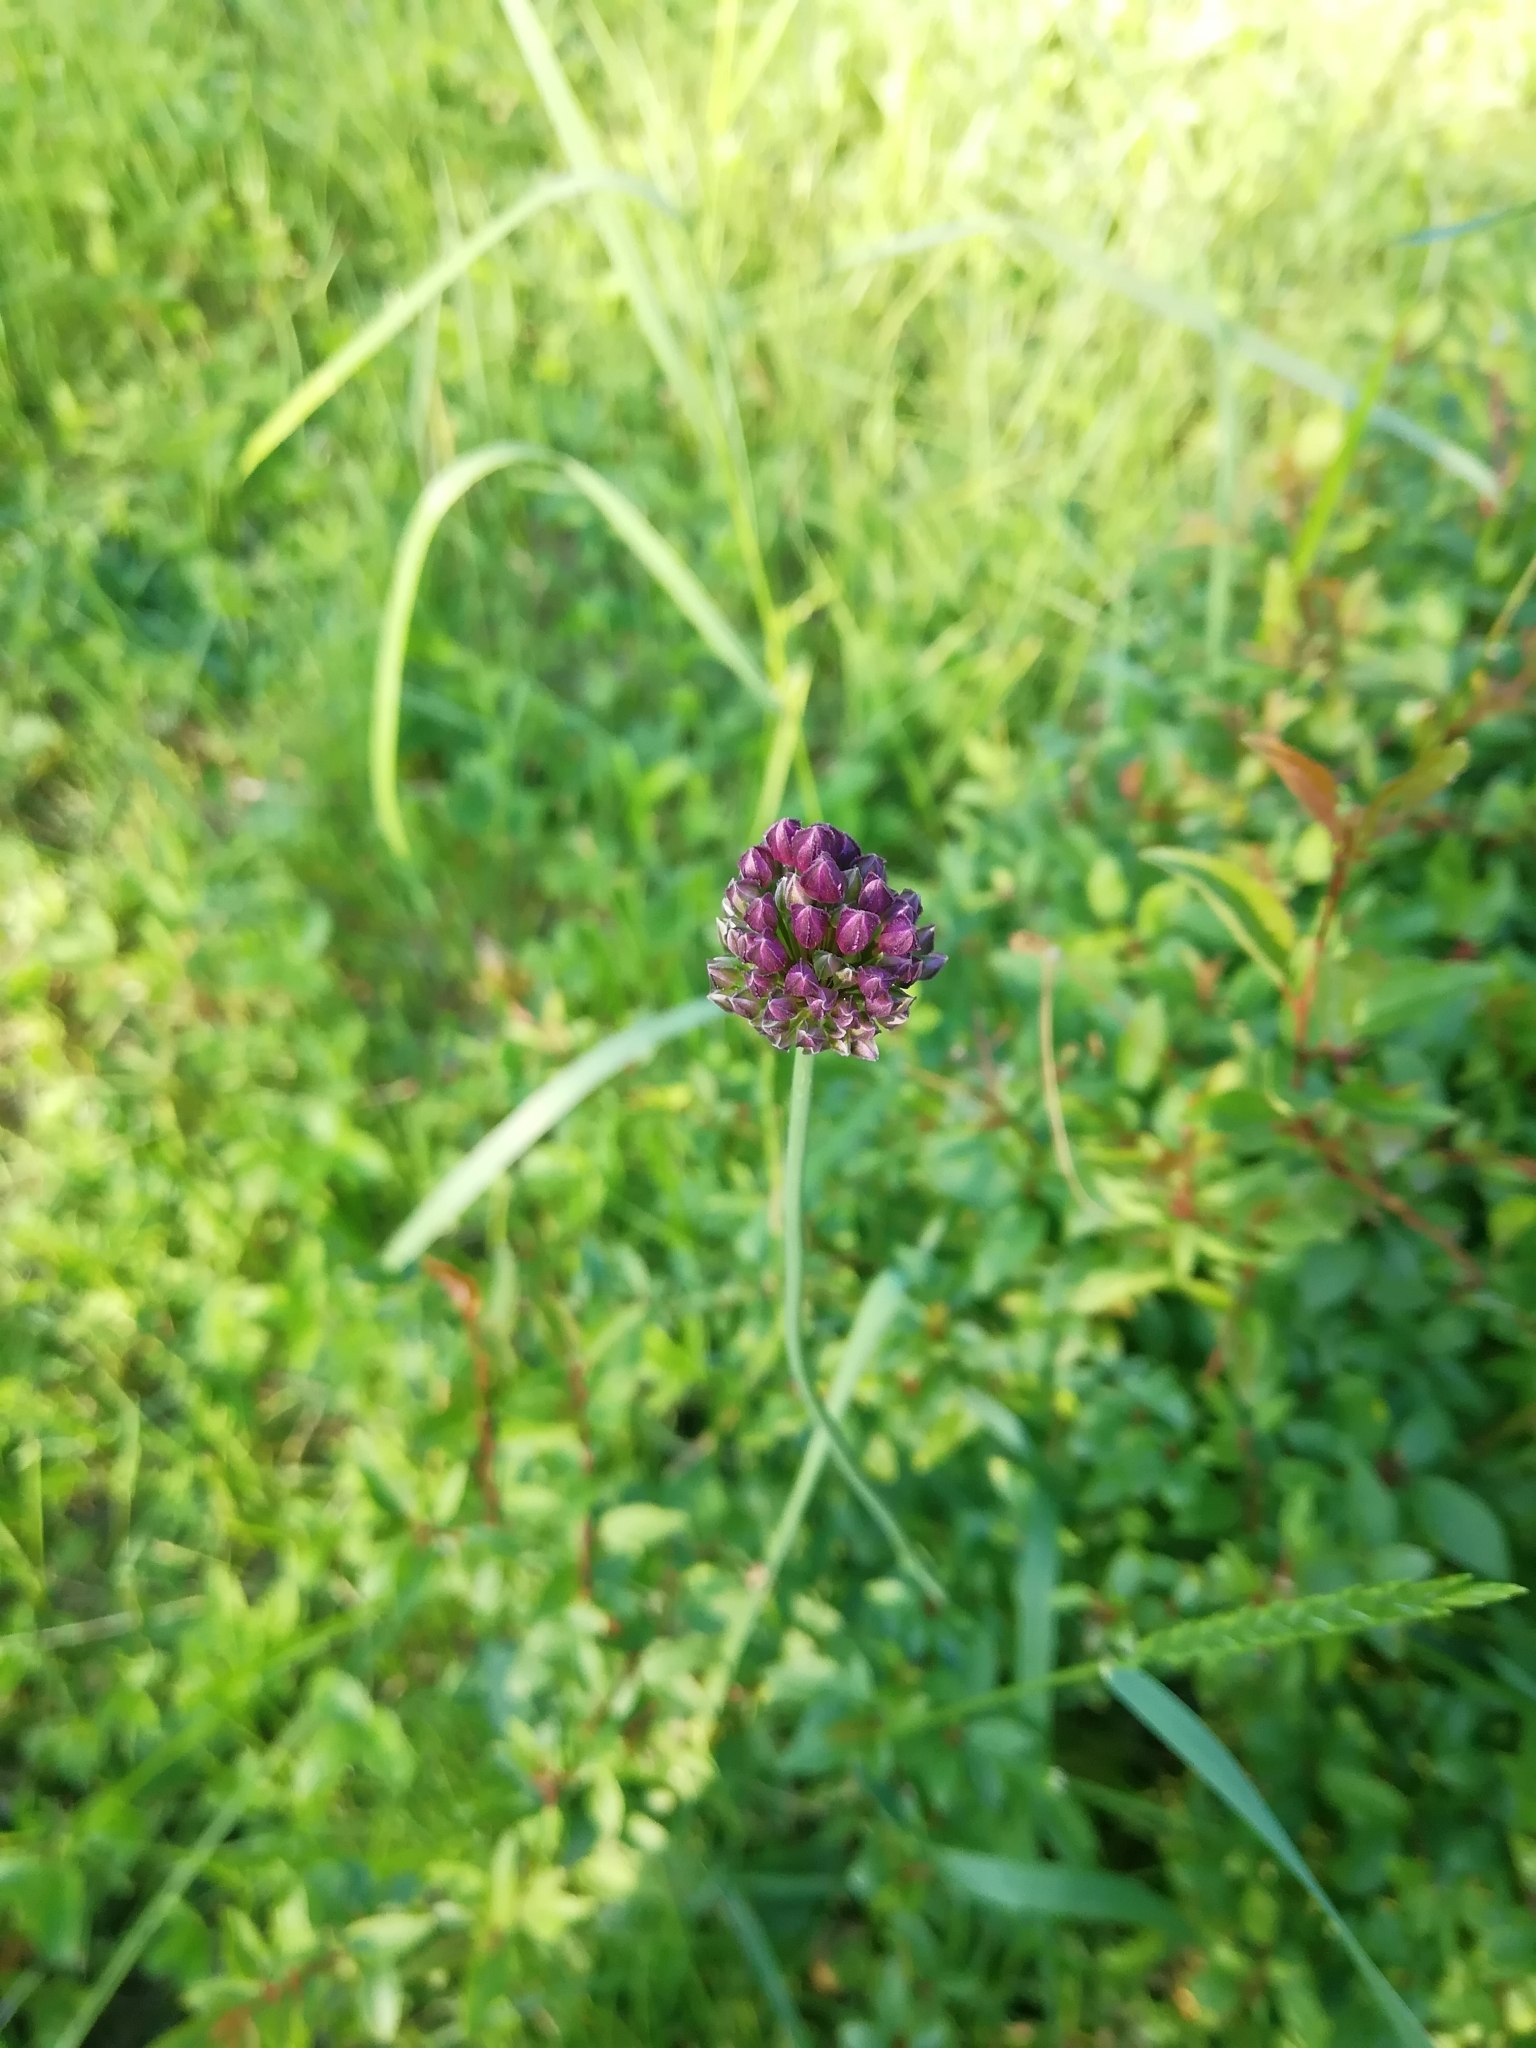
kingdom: Plantae
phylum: Tracheophyta
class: Liliopsida
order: Asparagales
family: Amaryllidaceae
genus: Allium
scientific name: Allium rotundum
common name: Sand leek
